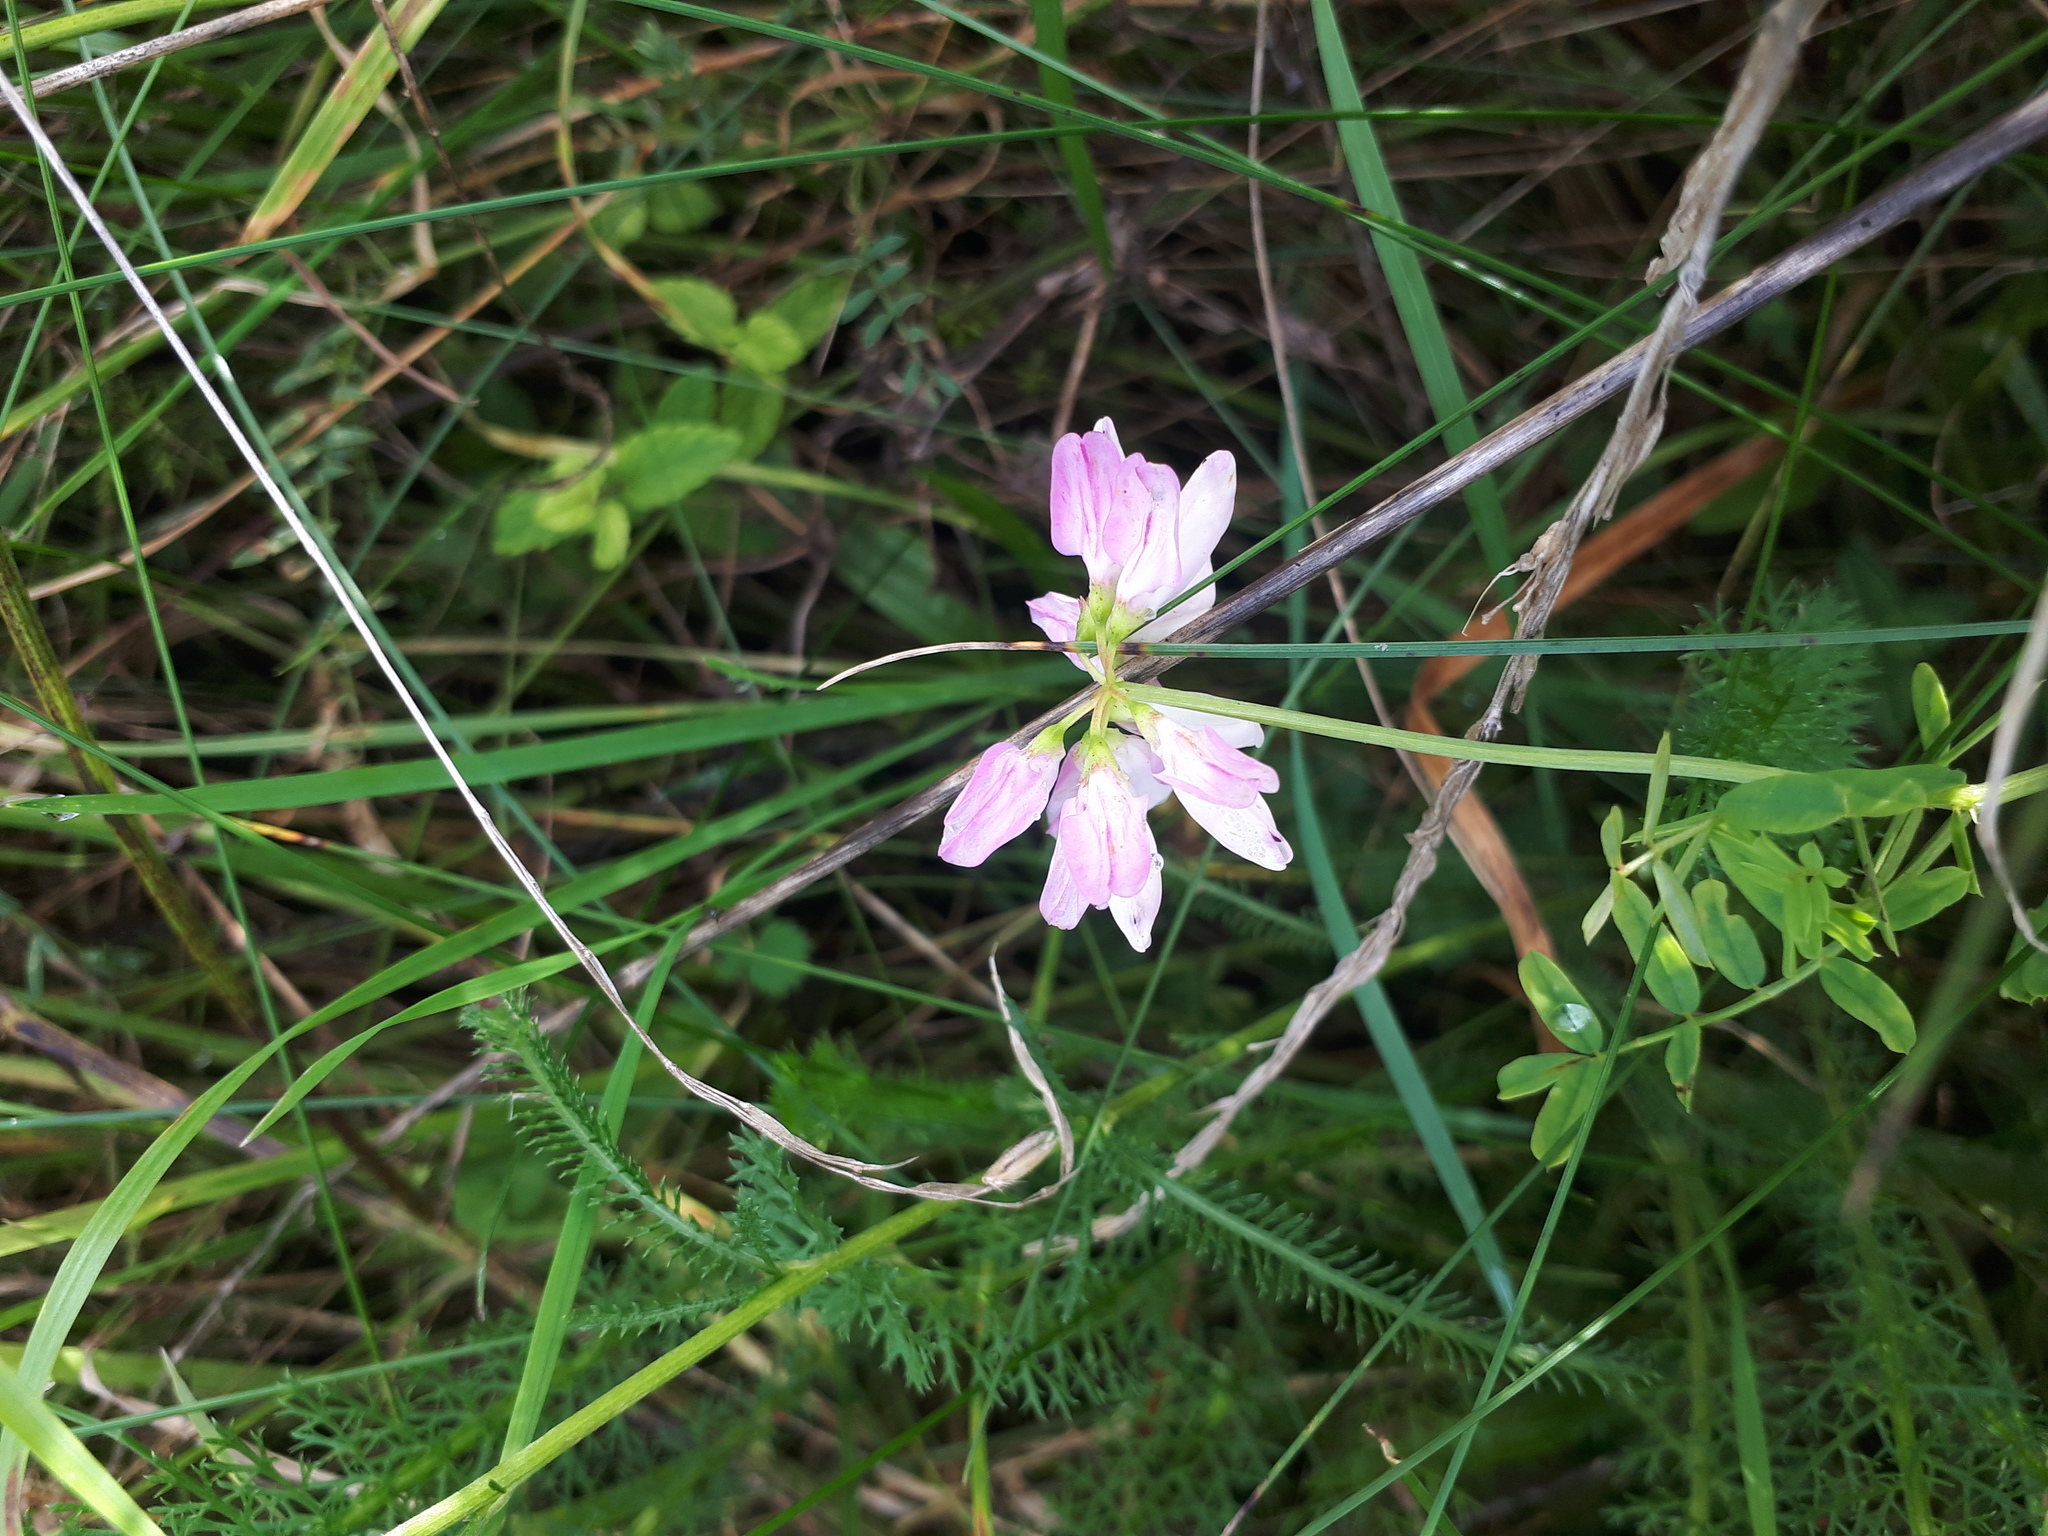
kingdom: Plantae
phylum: Tracheophyta
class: Magnoliopsida
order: Fabales
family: Fabaceae
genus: Coronilla
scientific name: Coronilla varia
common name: Crownvetch
